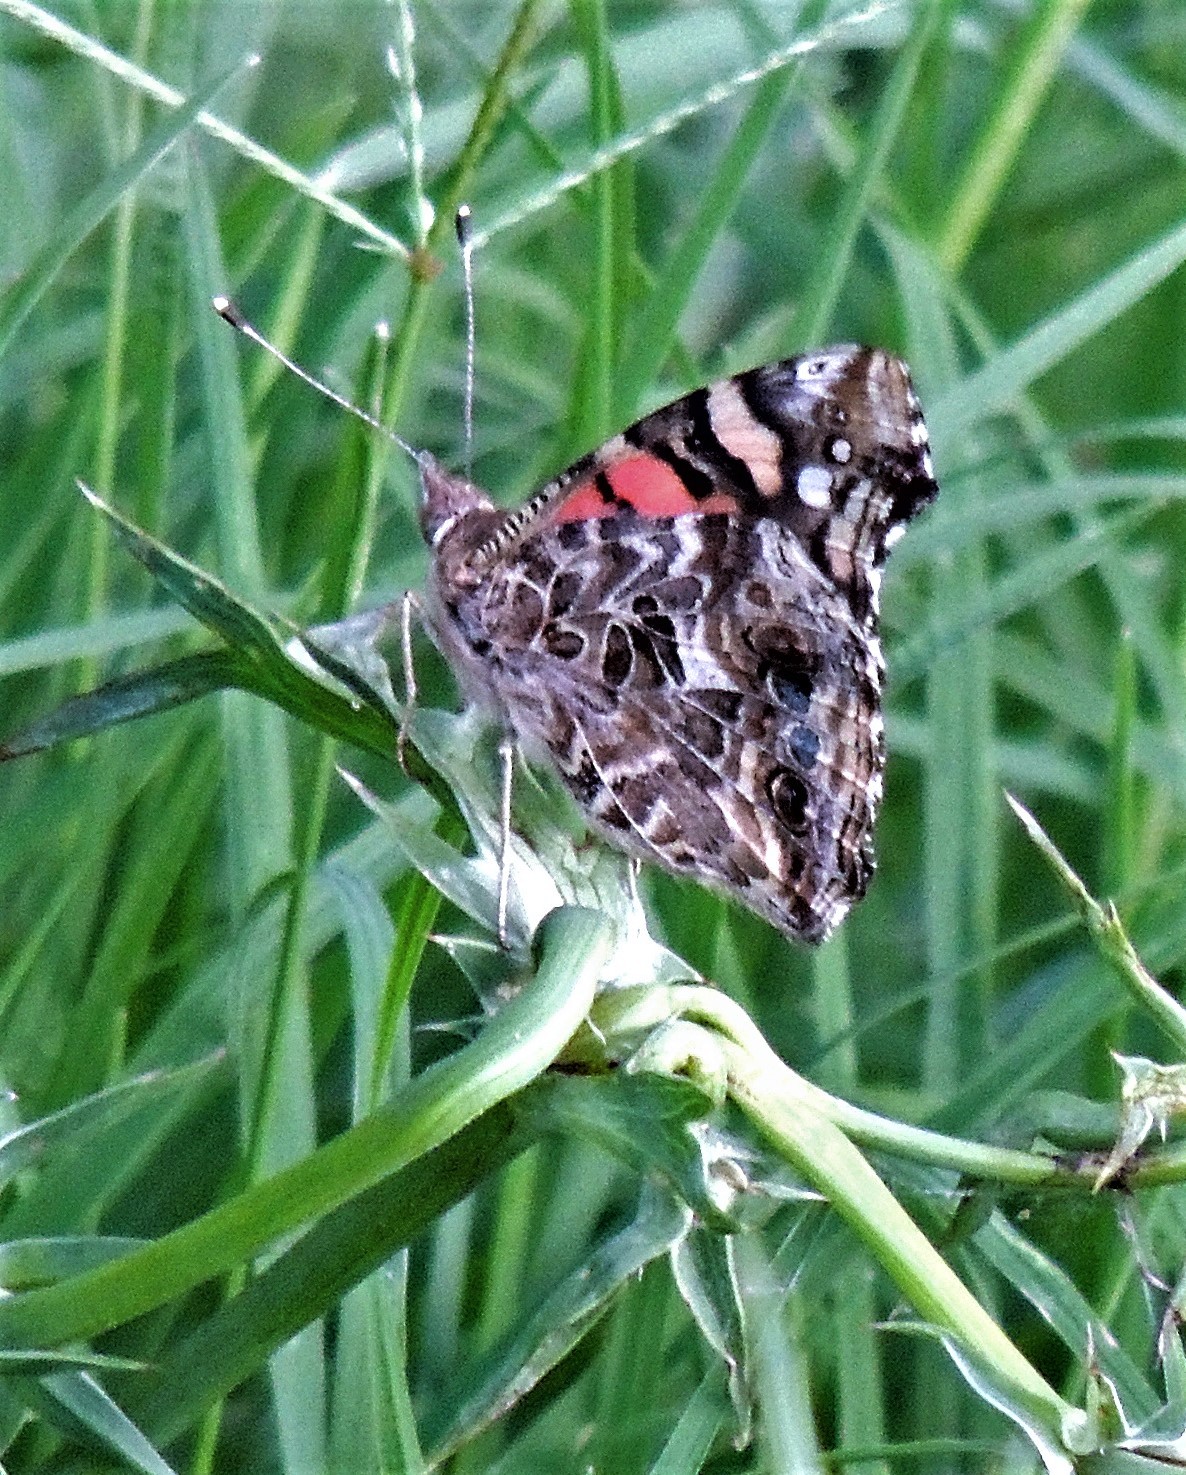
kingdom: Animalia
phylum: Arthropoda
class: Insecta
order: Lepidoptera
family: Nymphalidae
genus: Vanessa
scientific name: Vanessa carye
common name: Subtropical lady
